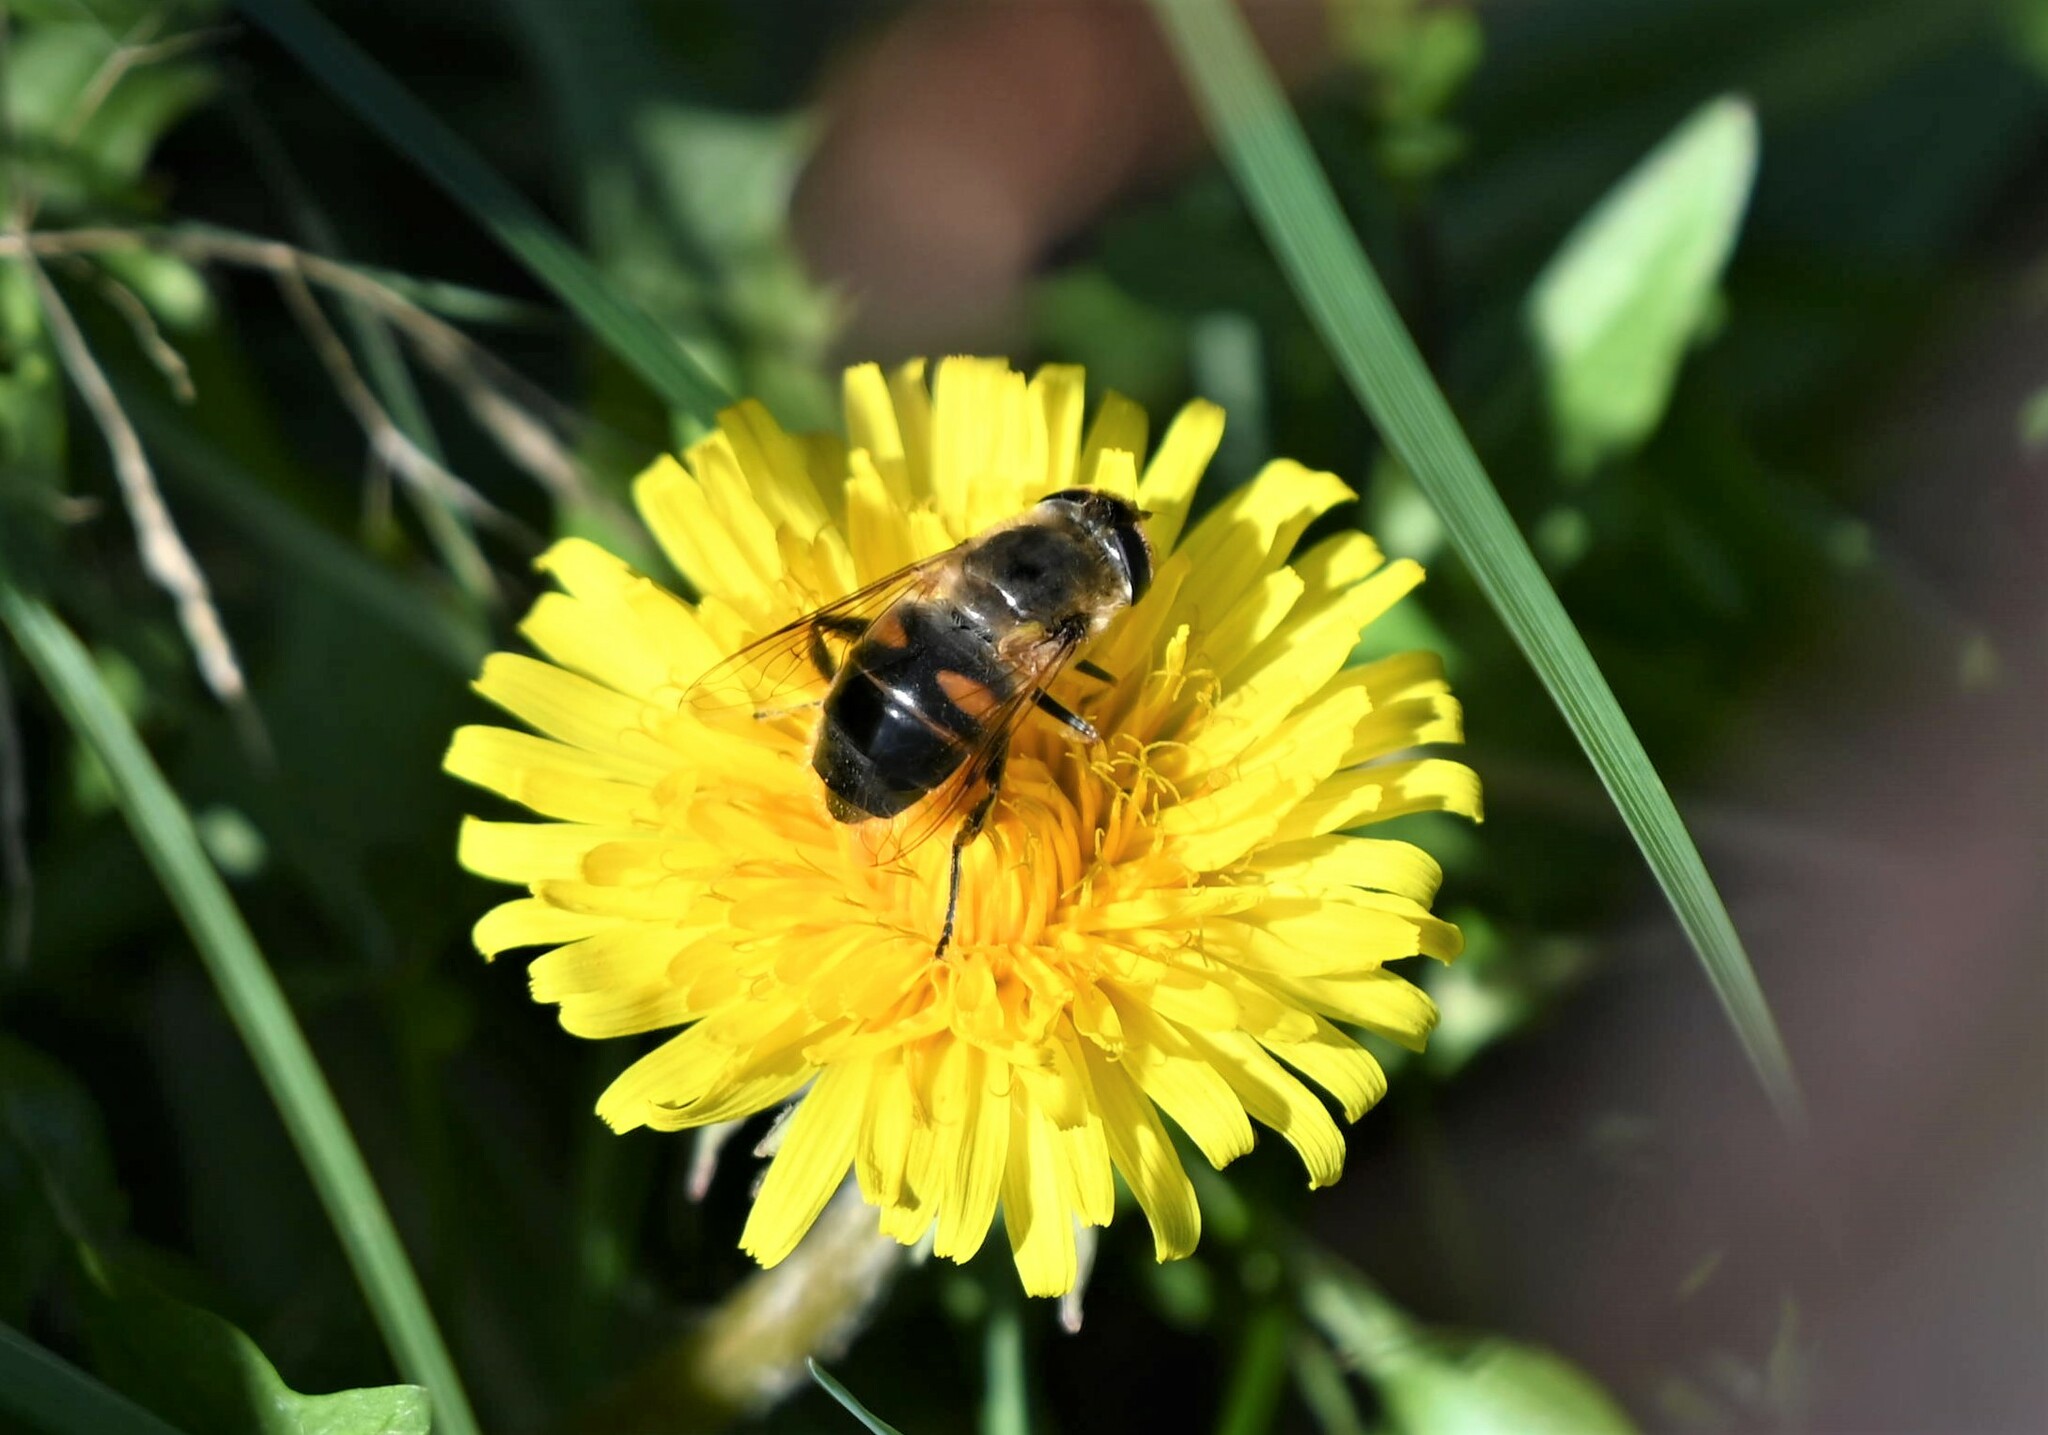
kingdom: Animalia
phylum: Arthropoda
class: Insecta
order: Diptera
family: Syrphidae
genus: Eristalis
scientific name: Eristalis tenax
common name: Drone fly
